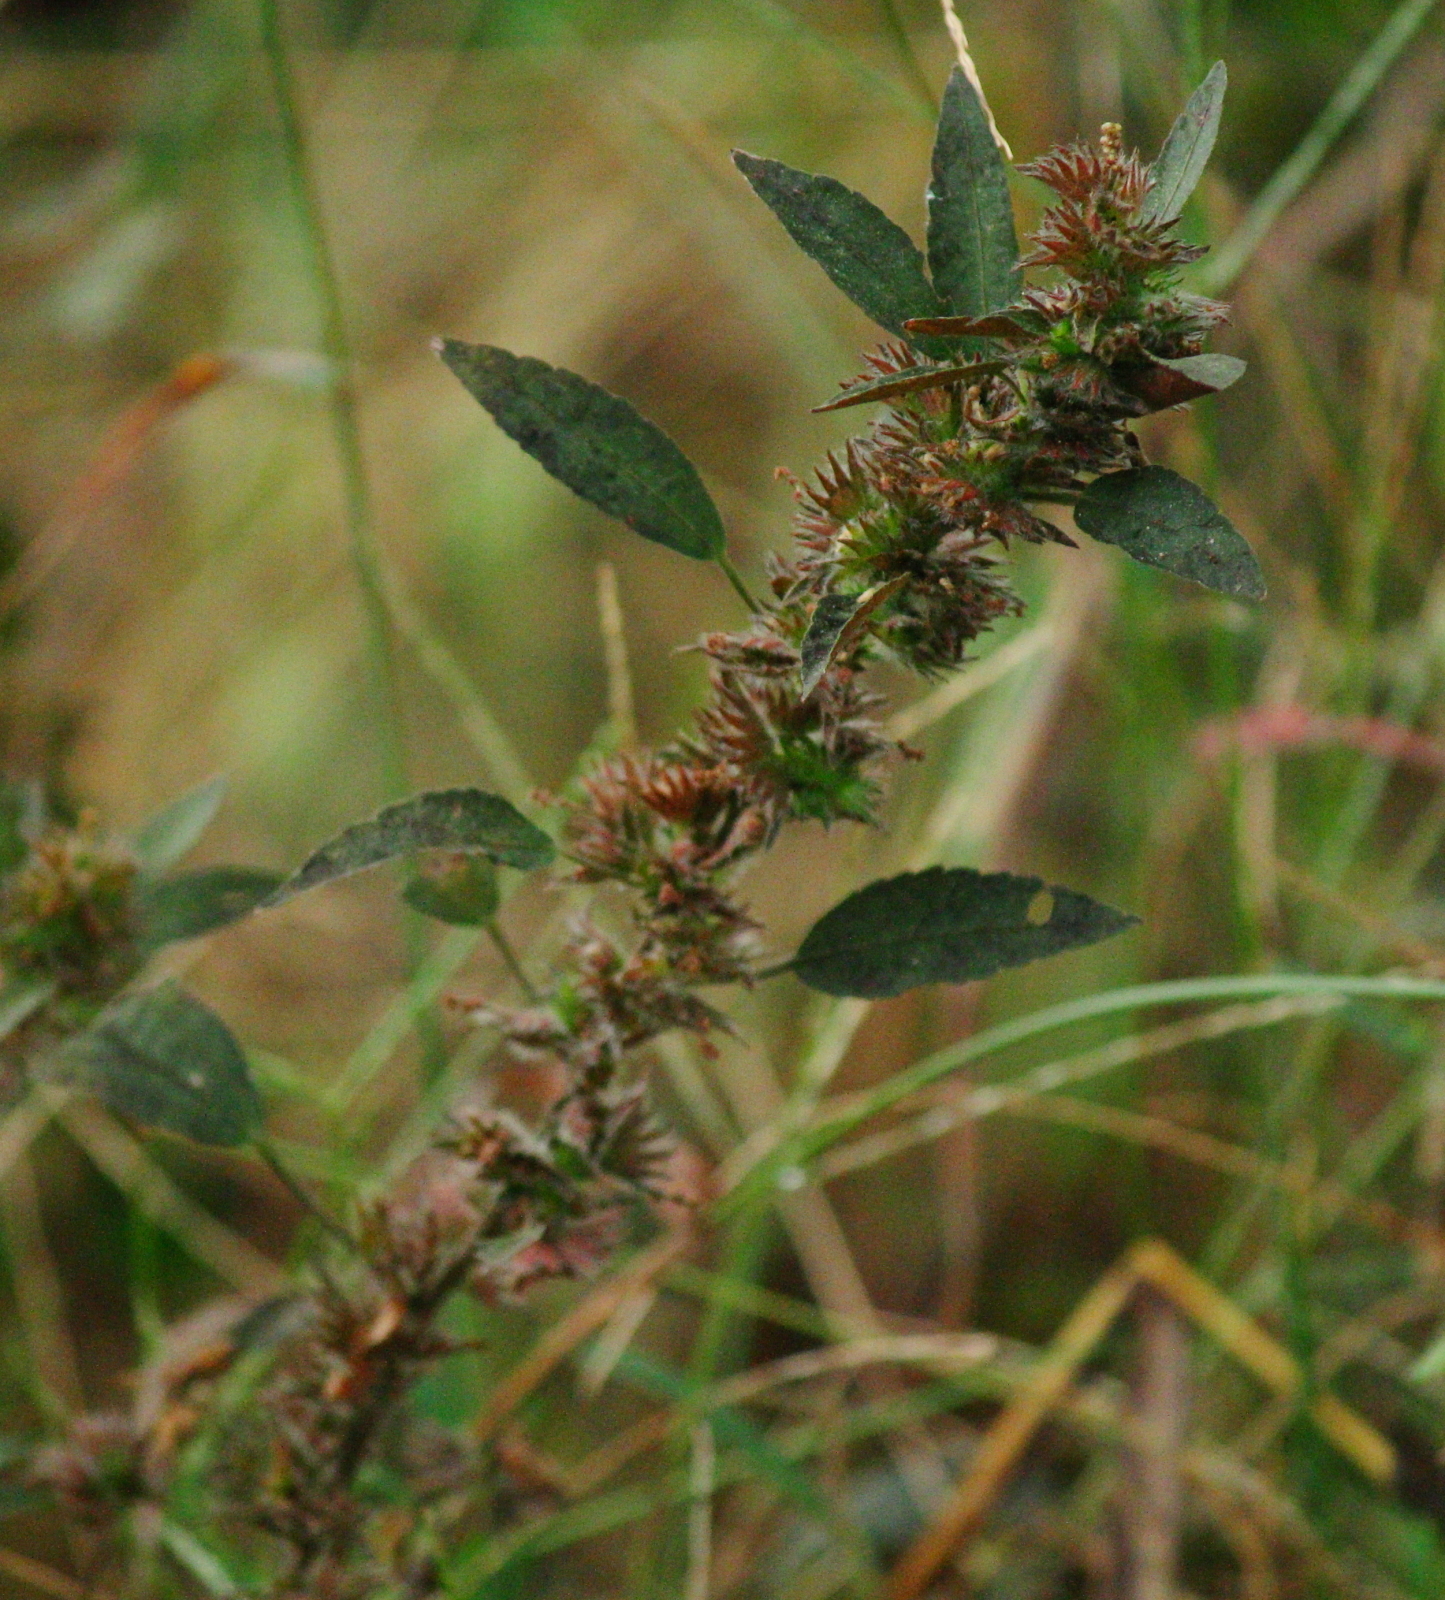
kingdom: Plantae
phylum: Tracheophyta
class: Magnoliopsida
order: Malpighiales
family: Euphorbiaceae
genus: Acalypha
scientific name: Acalypha gracilens
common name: Slender three-seeded mercury
